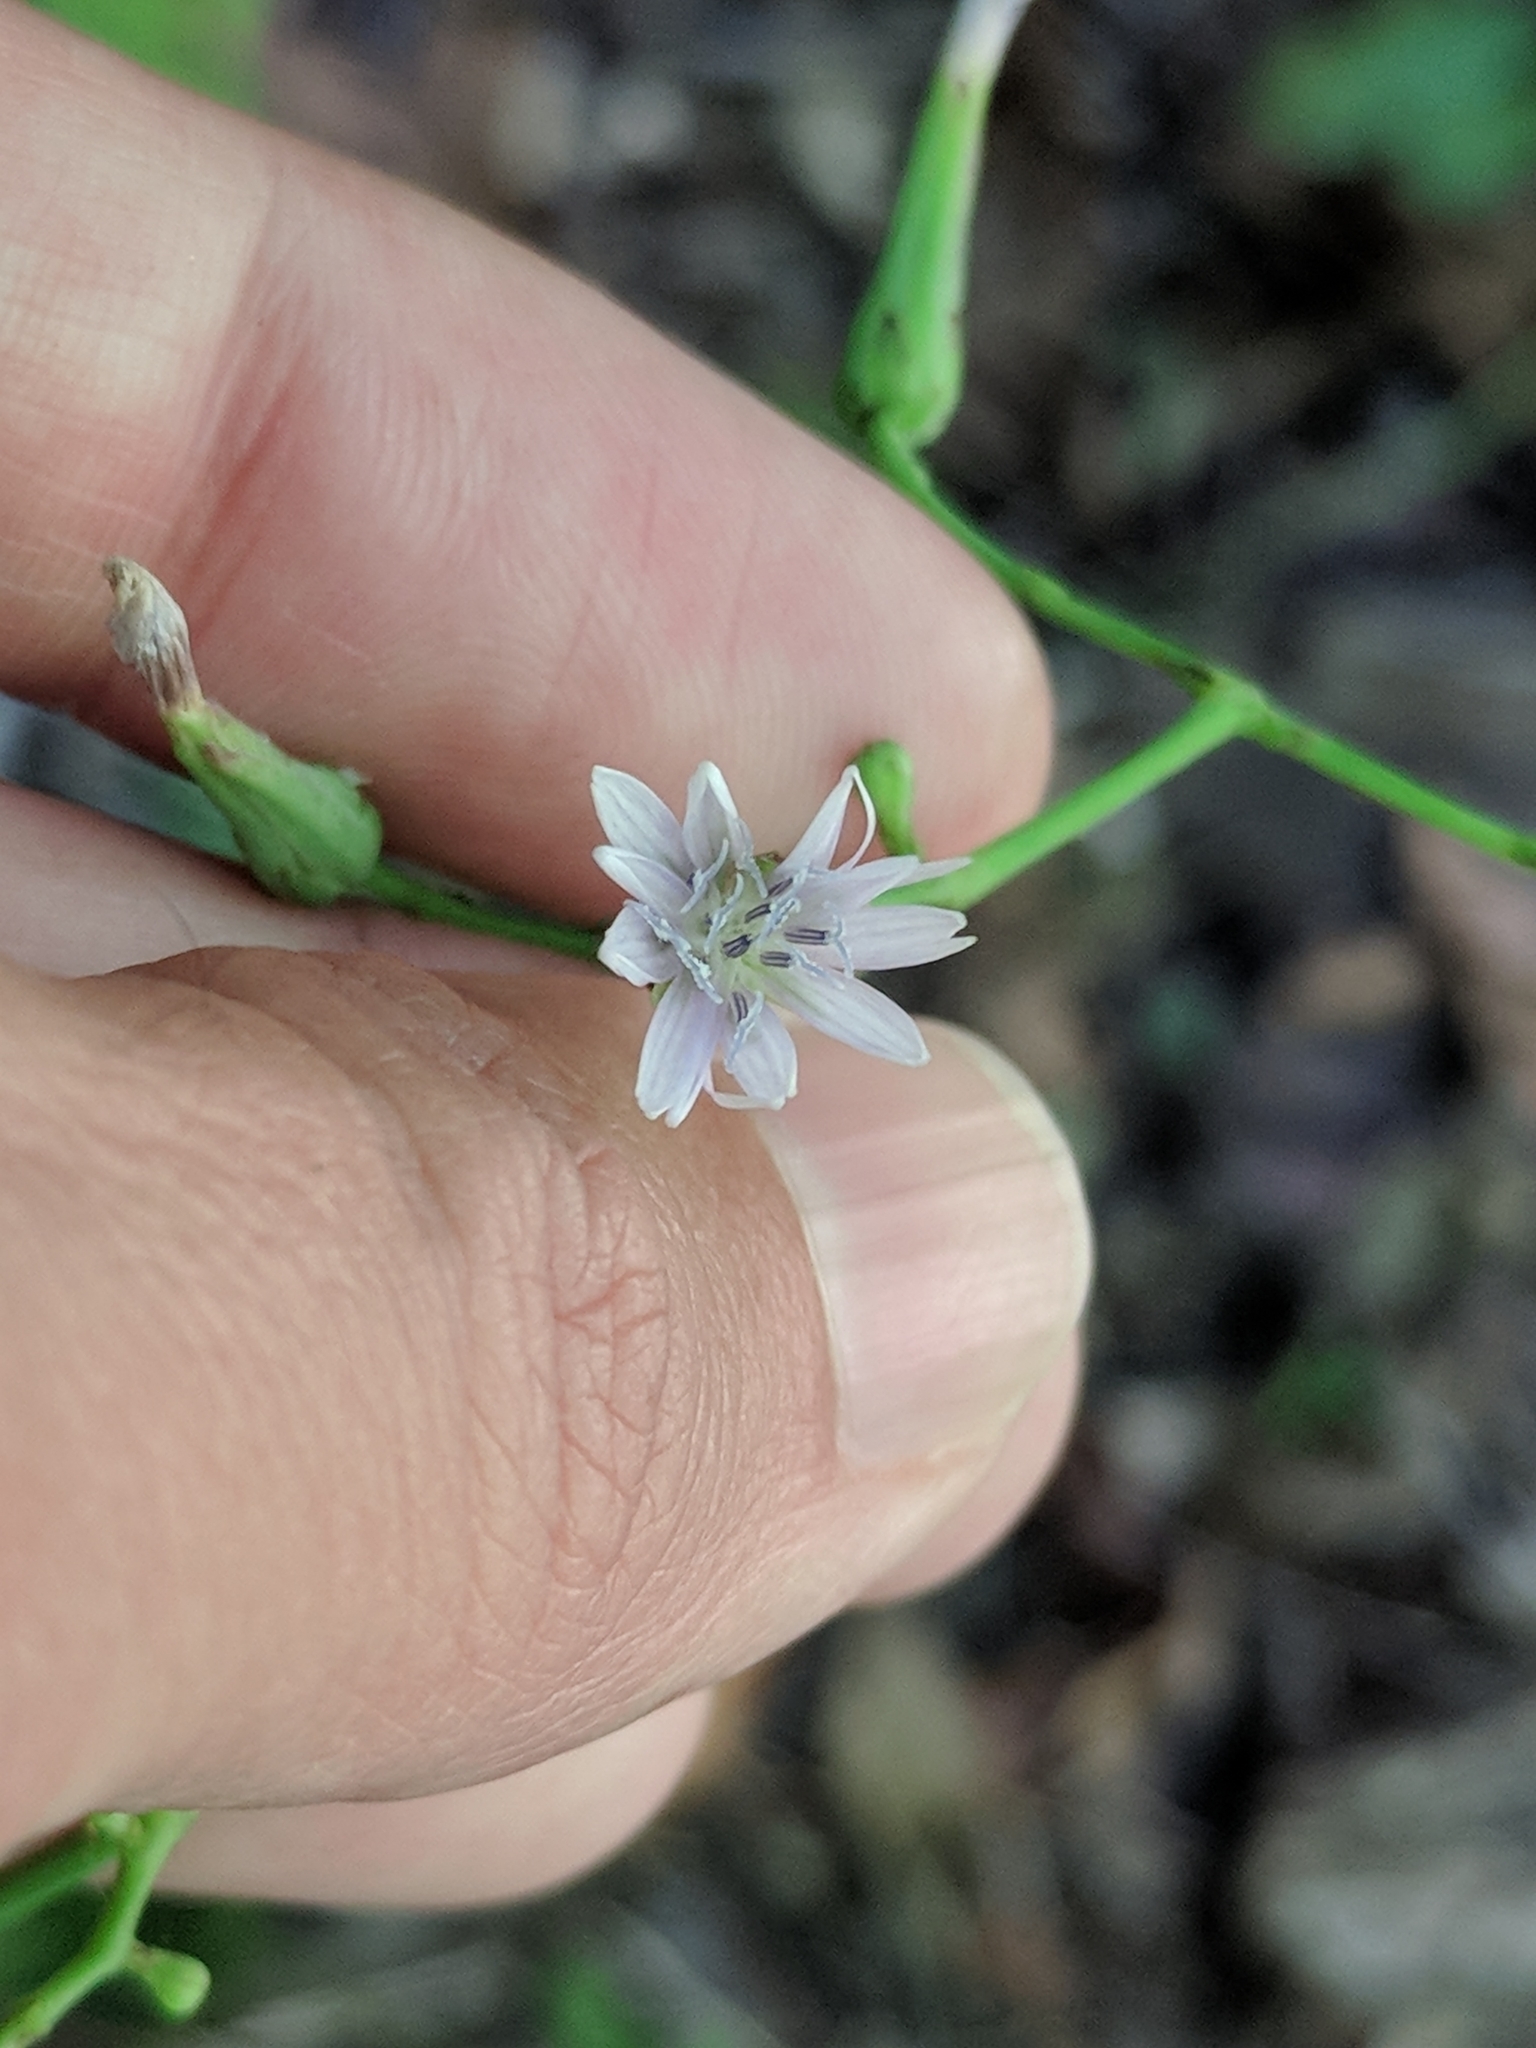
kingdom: Plantae
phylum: Tracheophyta
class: Magnoliopsida
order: Asterales
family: Asteraceae
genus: Lactuca
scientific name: Lactuca floridana
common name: Woodland lettuce
